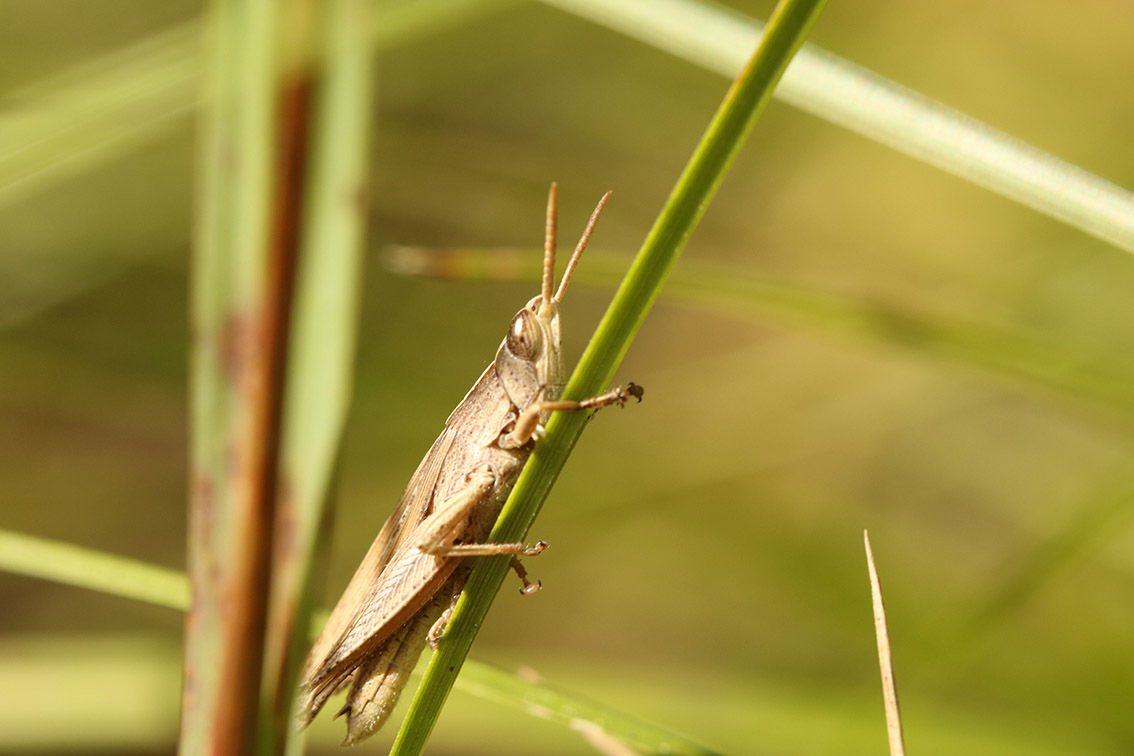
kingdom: Animalia
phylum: Arthropoda
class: Insecta
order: Orthoptera
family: Acrididae
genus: Laplatacris
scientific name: Laplatacris dispar
